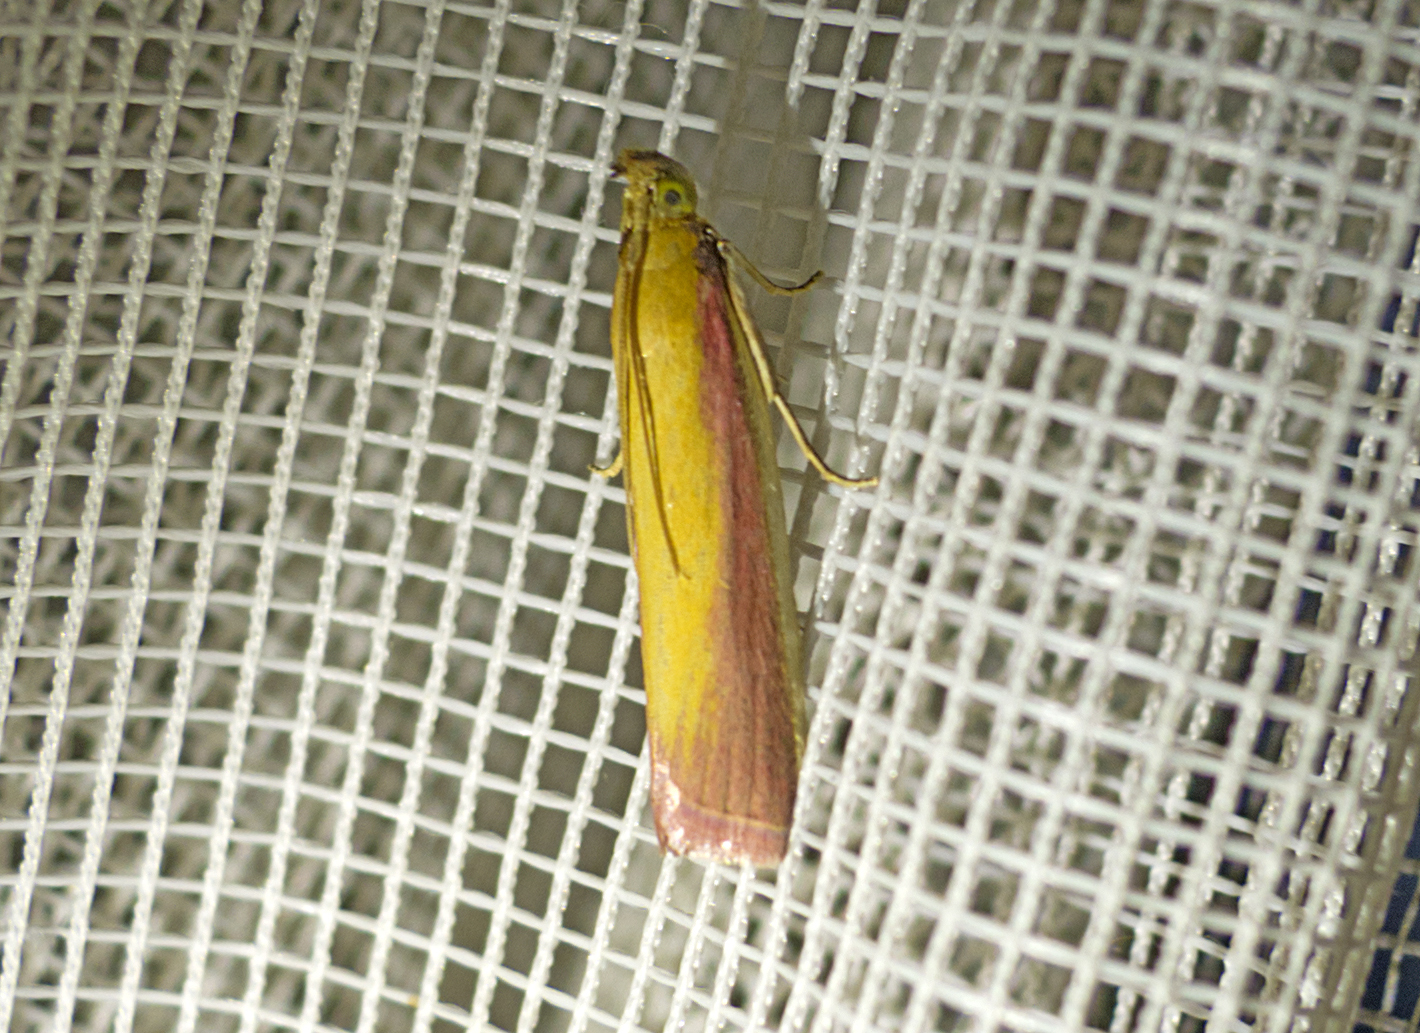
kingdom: Animalia
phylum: Arthropoda
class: Insecta
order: Lepidoptera
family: Pyralidae
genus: Oncocera
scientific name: Oncocera semirubella
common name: Rosy-striped knot-horn
